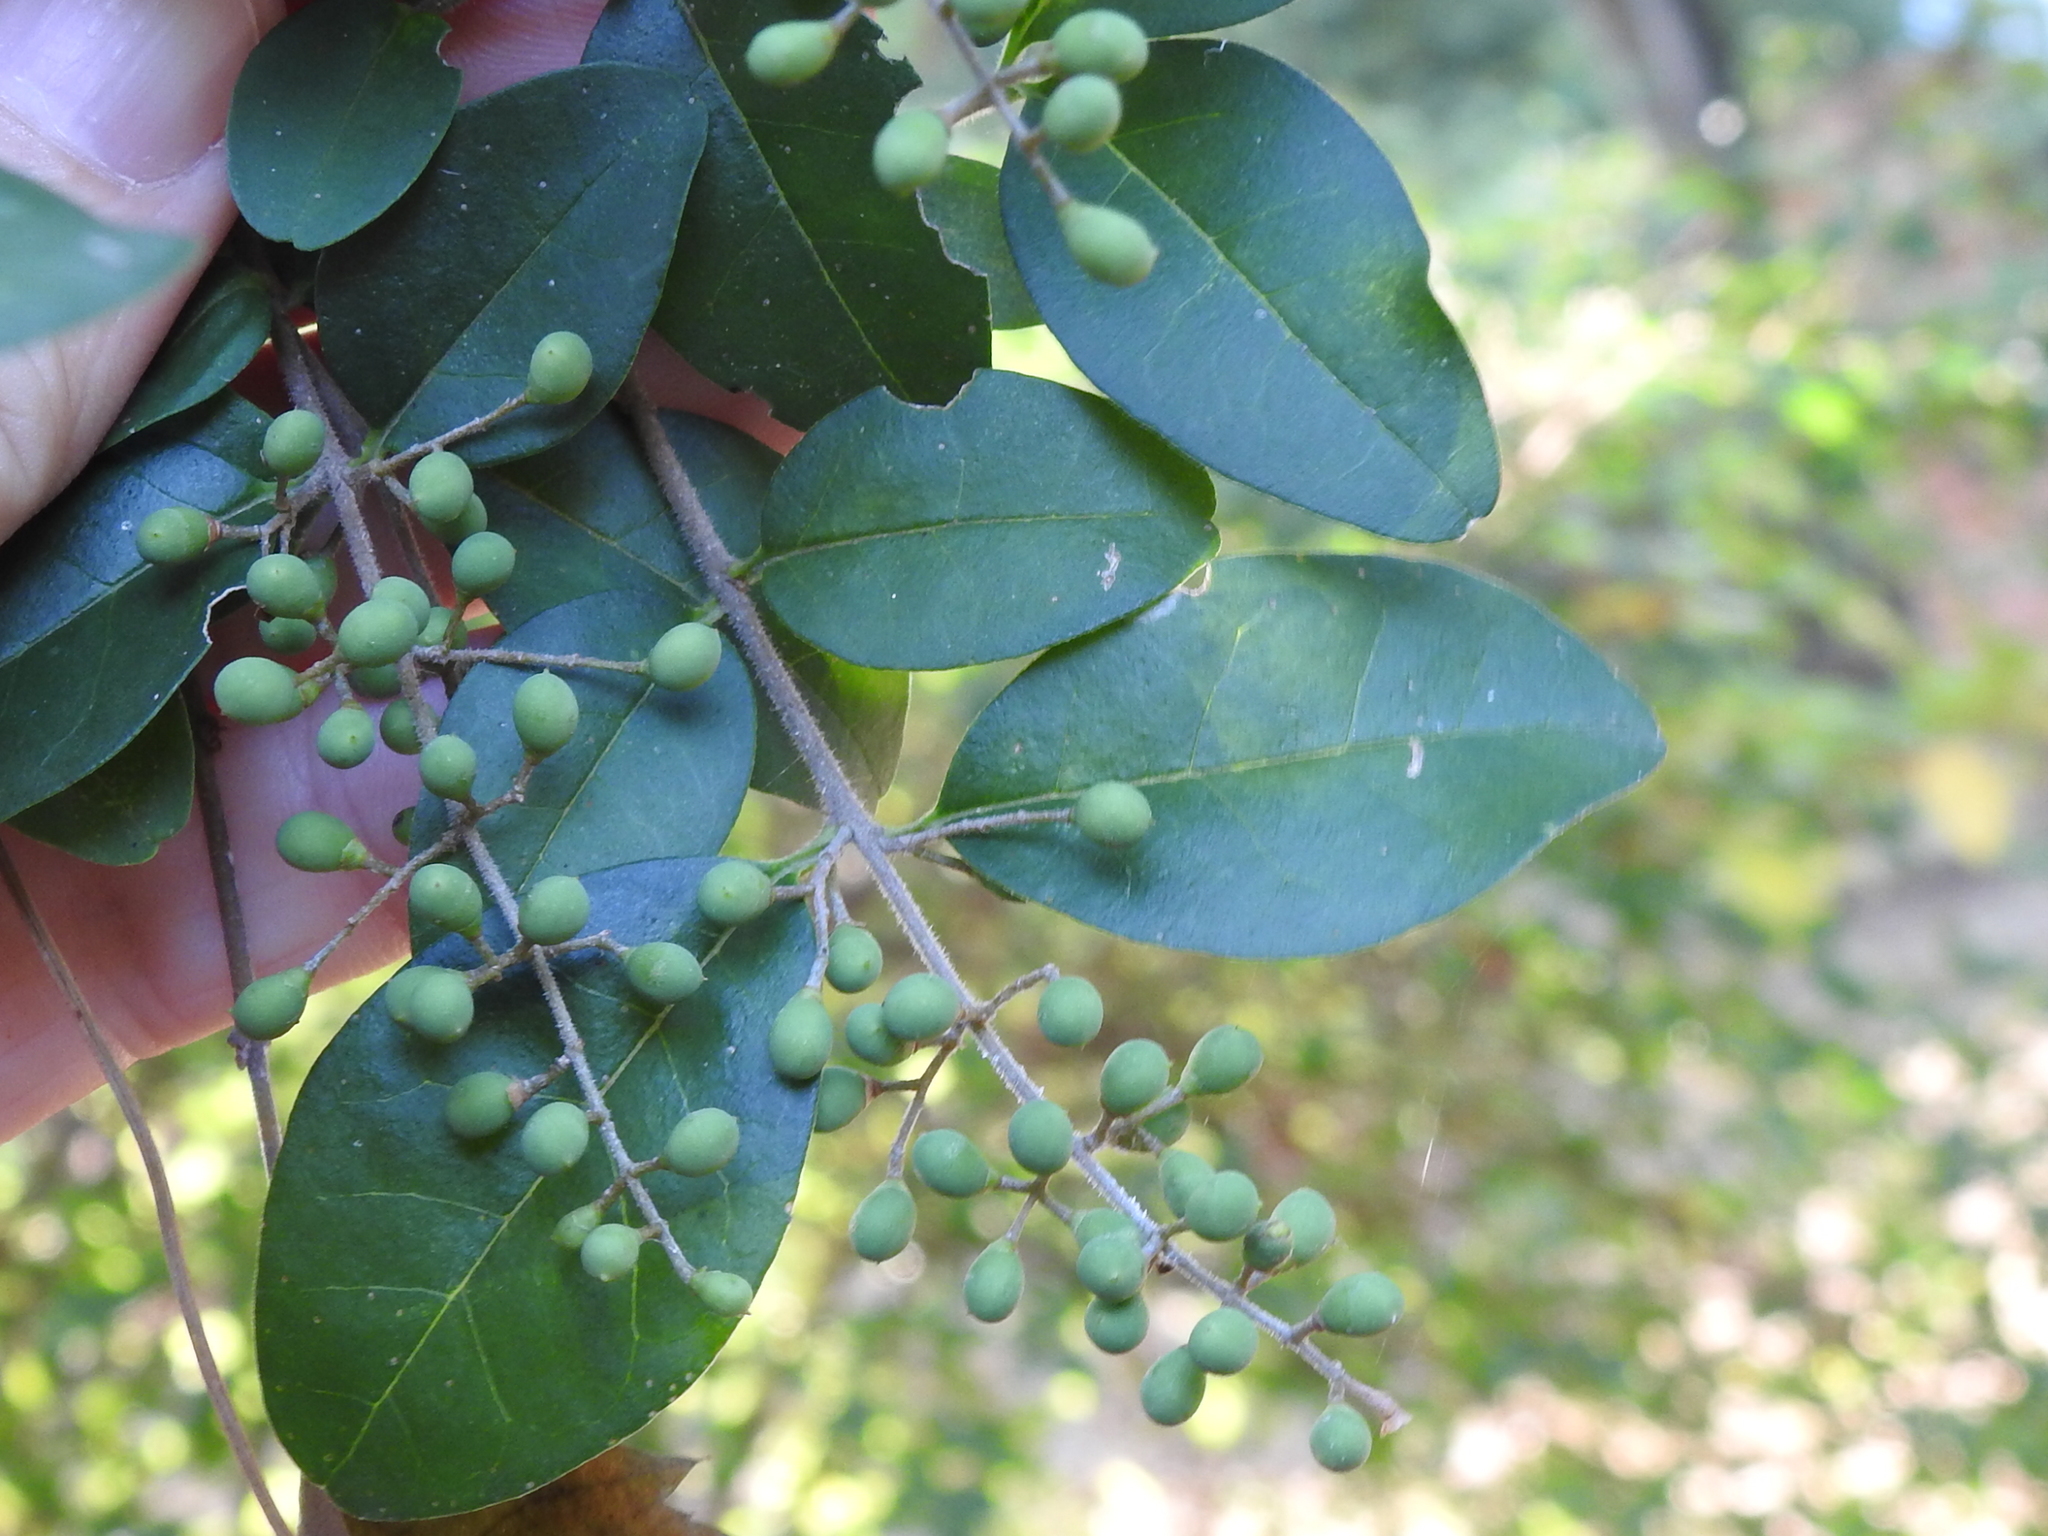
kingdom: Plantae
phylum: Tracheophyta
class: Magnoliopsida
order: Lamiales
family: Oleaceae
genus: Ligustrum
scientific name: Ligustrum sinense
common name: Chinese privet
